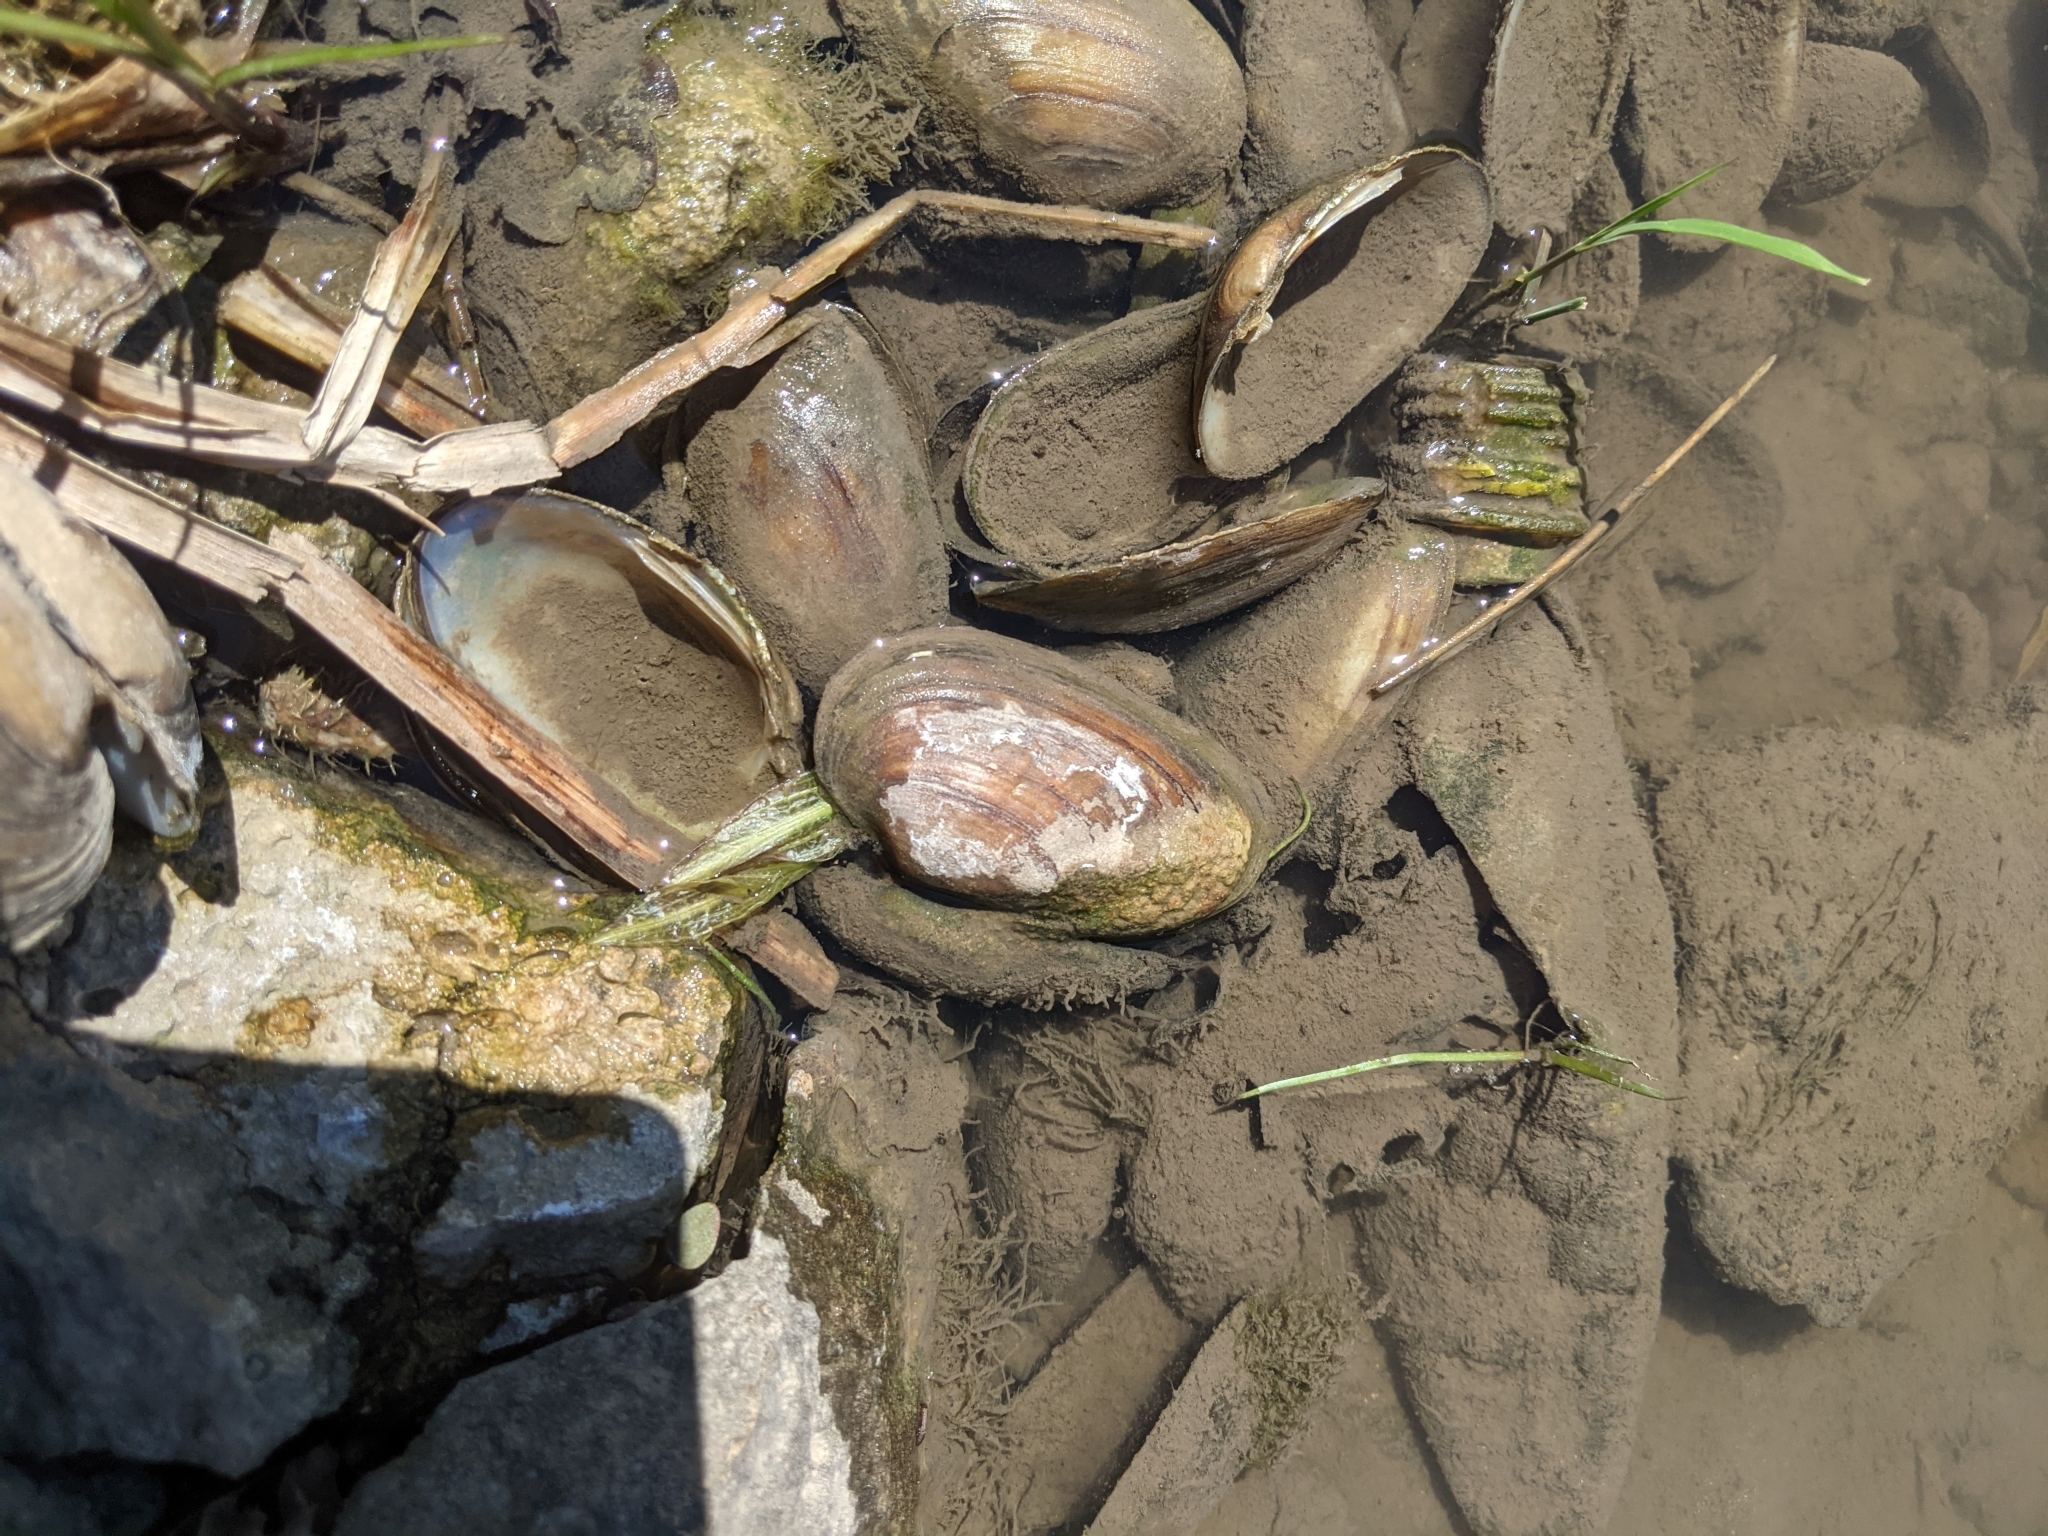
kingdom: Animalia
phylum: Mollusca
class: Bivalvia
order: Unionida
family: Unionidae
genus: Unio
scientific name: Unio crassus
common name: Thick shelled river mussel
